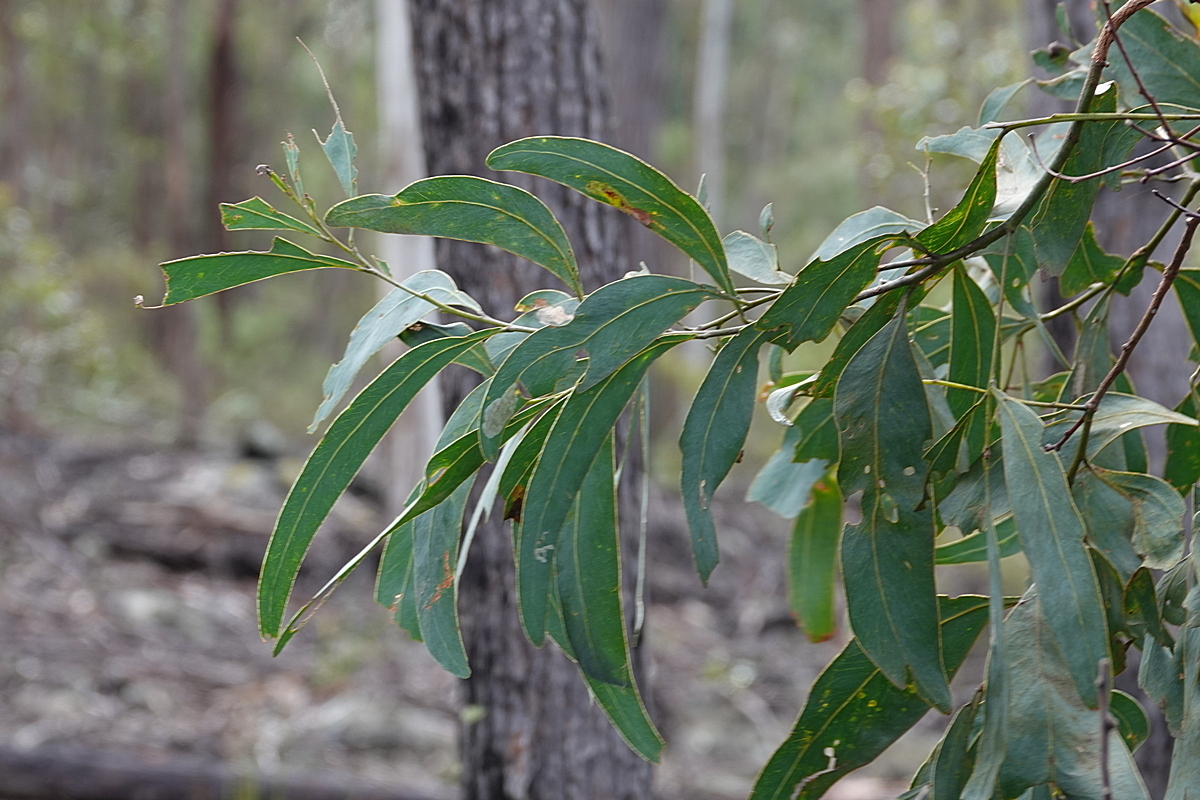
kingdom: Plantae
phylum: Tracheophyta
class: Magnoliopsida
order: Fabales
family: Fabaceae
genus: Acacia
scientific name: Acacia falciformis
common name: Tanning wattle
